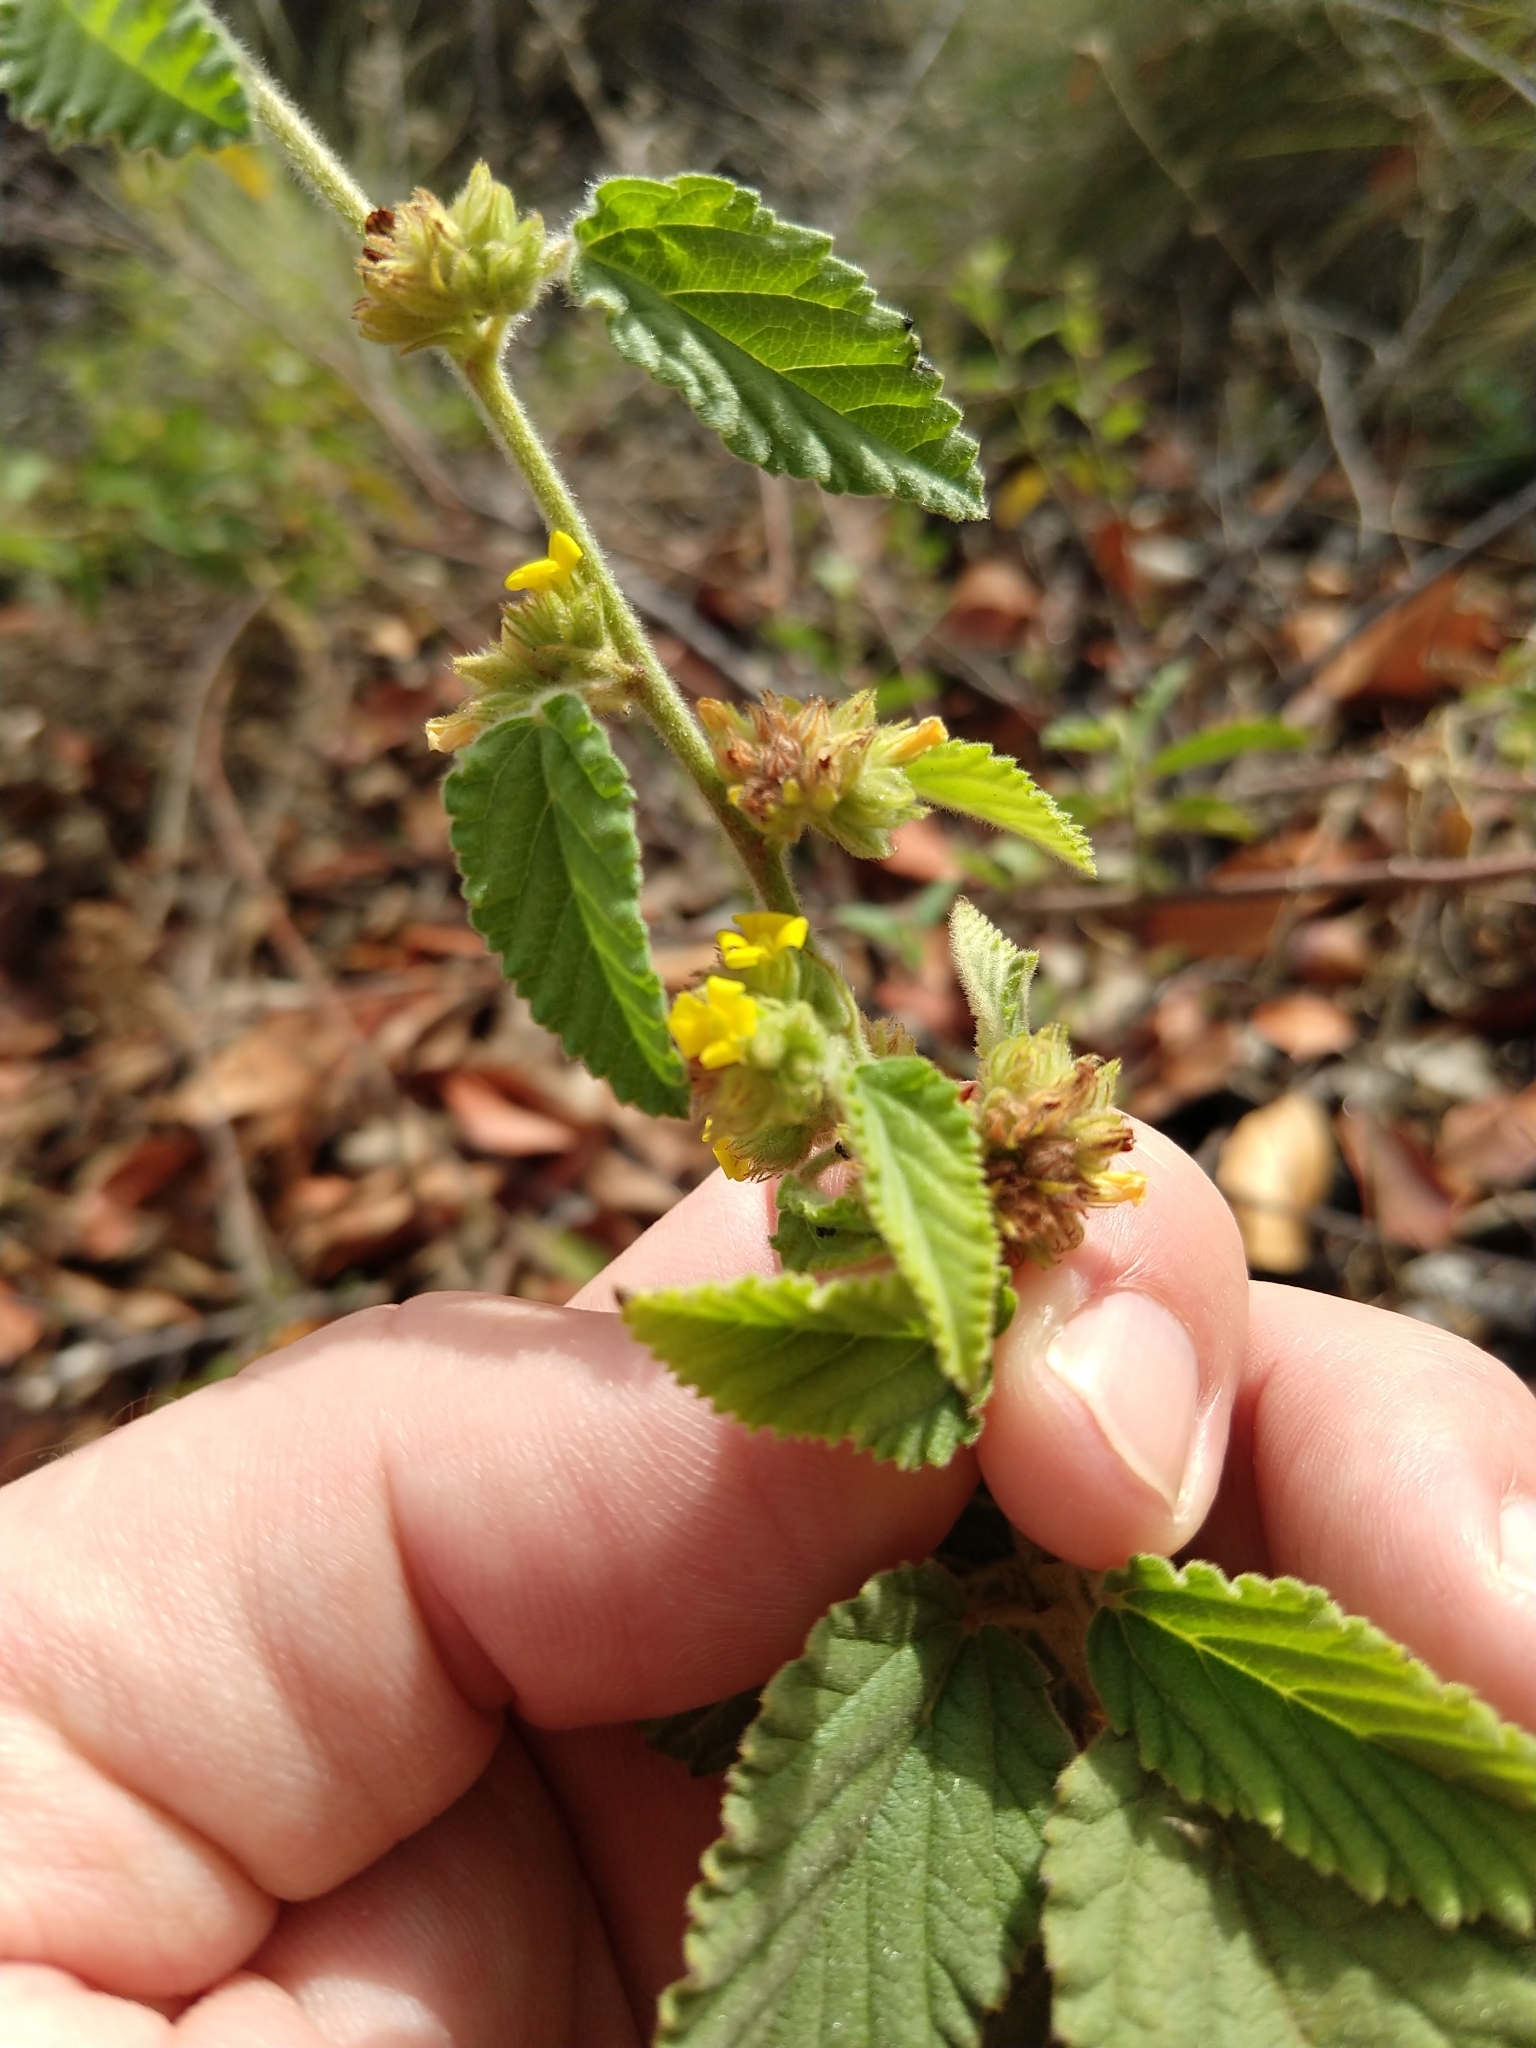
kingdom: Plantae
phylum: Tracheophyta
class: Magnoliopsida
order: Malvales
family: Malvaceae
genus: Waltheria
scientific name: Waltheria indica
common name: Leather-coat
